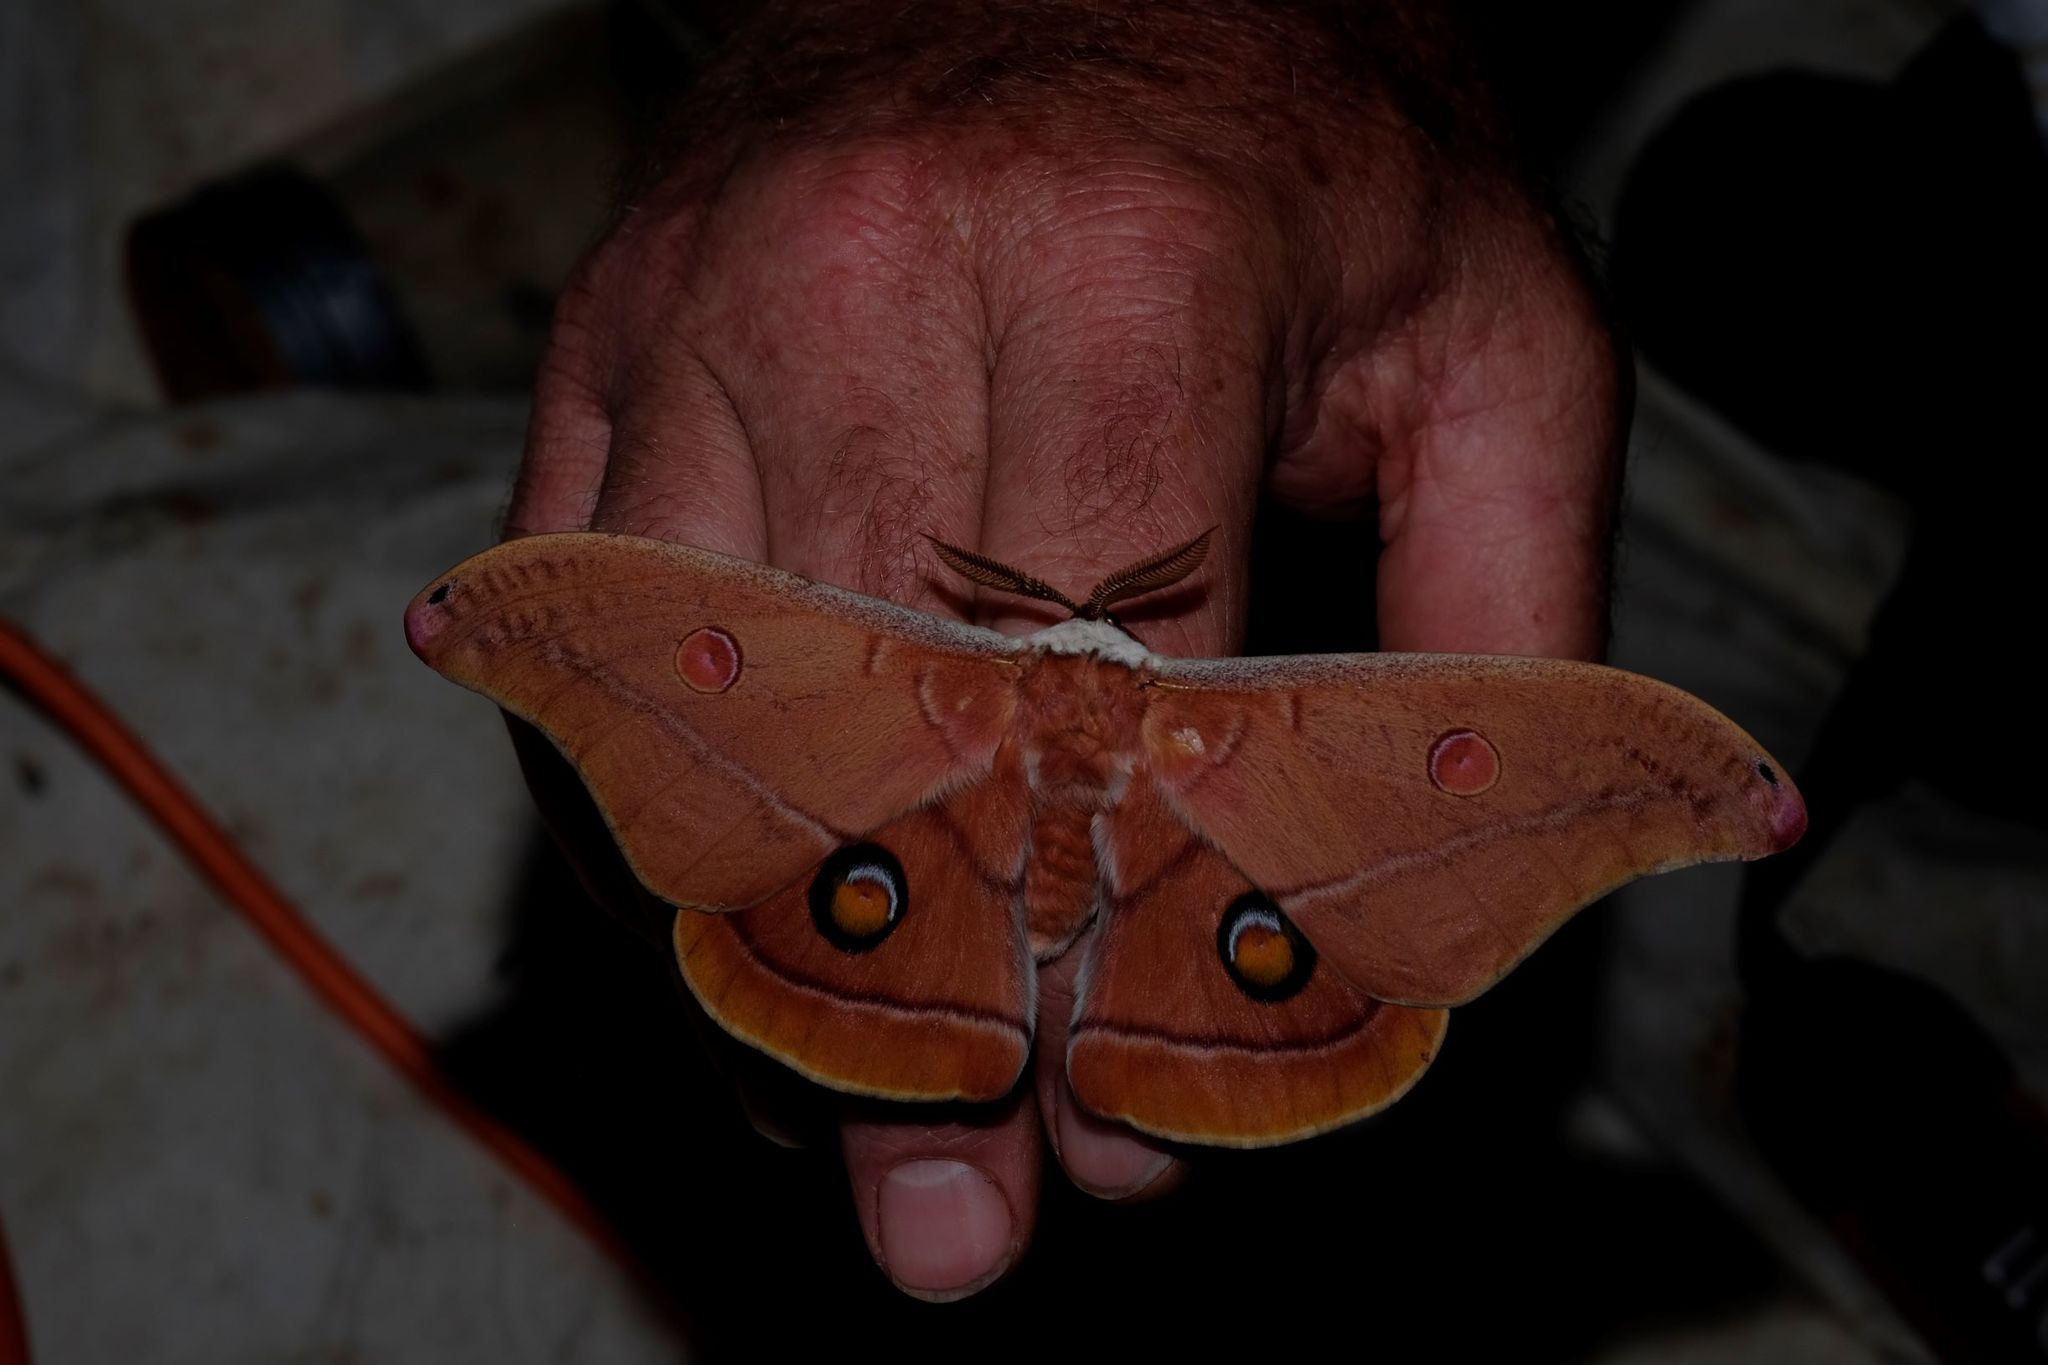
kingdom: Animalia
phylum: Arthropoda
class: Insecta
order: Lepidoptera
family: Saturniidae
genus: Opodiphthera
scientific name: Opodiphthera
